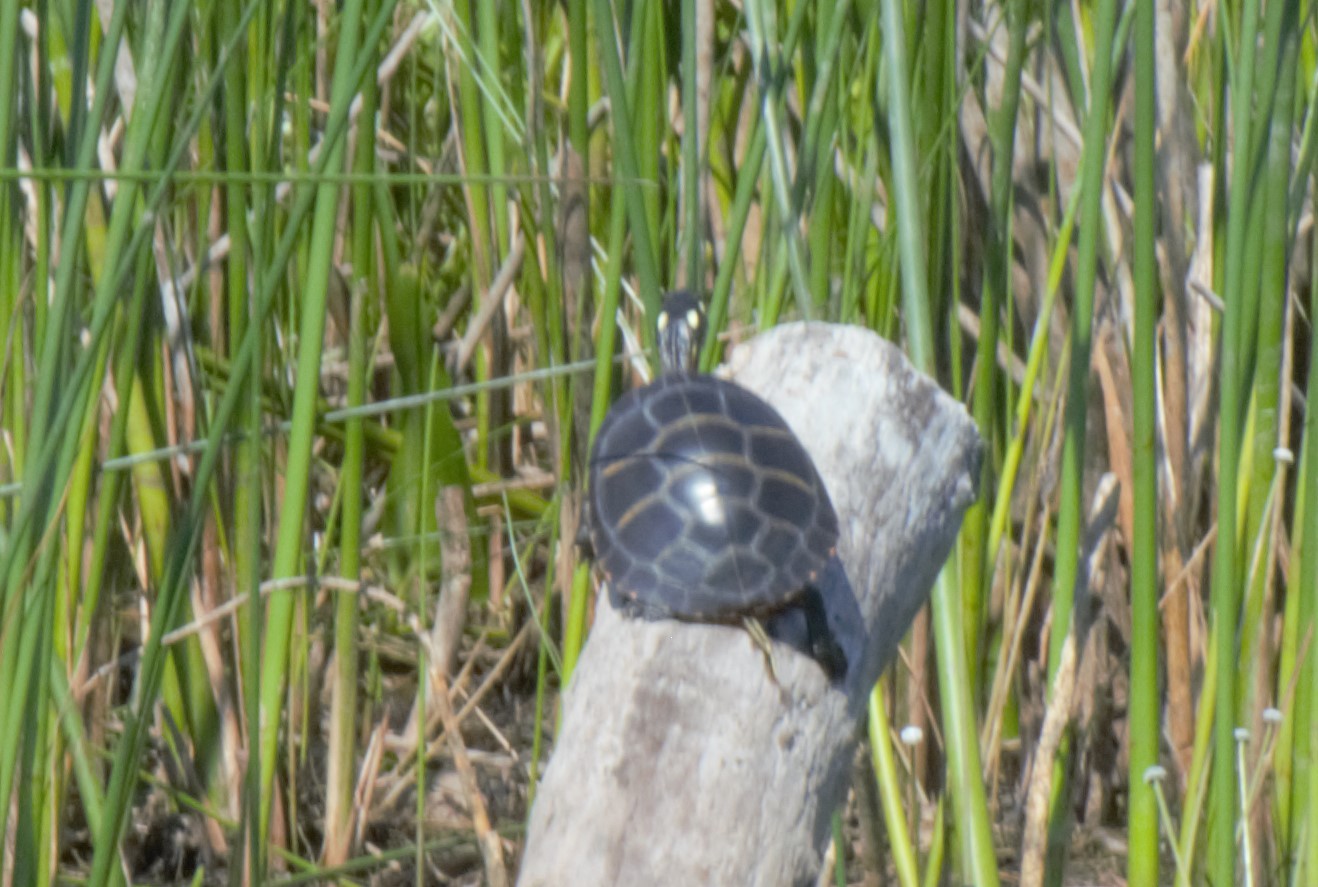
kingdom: Animalia
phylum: Chordata
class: Testudines
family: Emydidae
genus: Chrysemys
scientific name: Chrysemys picta
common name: Painted turtle
